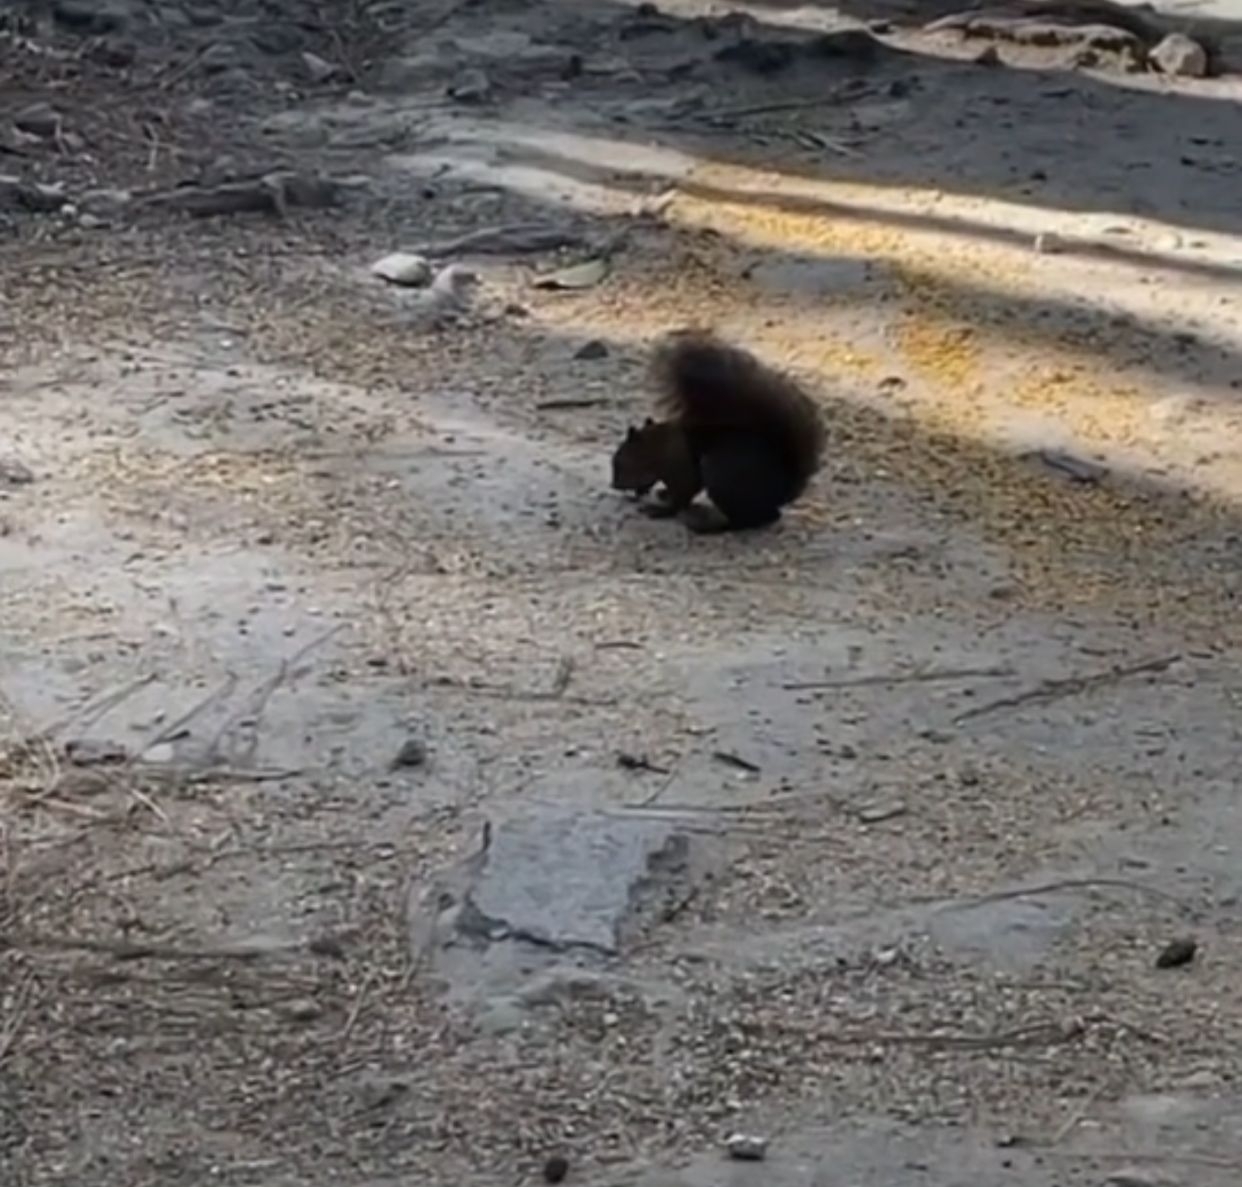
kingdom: Animalia
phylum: Chordata
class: Mammalia
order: Rodentia
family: Sciuridae
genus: Sciurus
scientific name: Sciurus variegatoides
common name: Variegated squirrel
